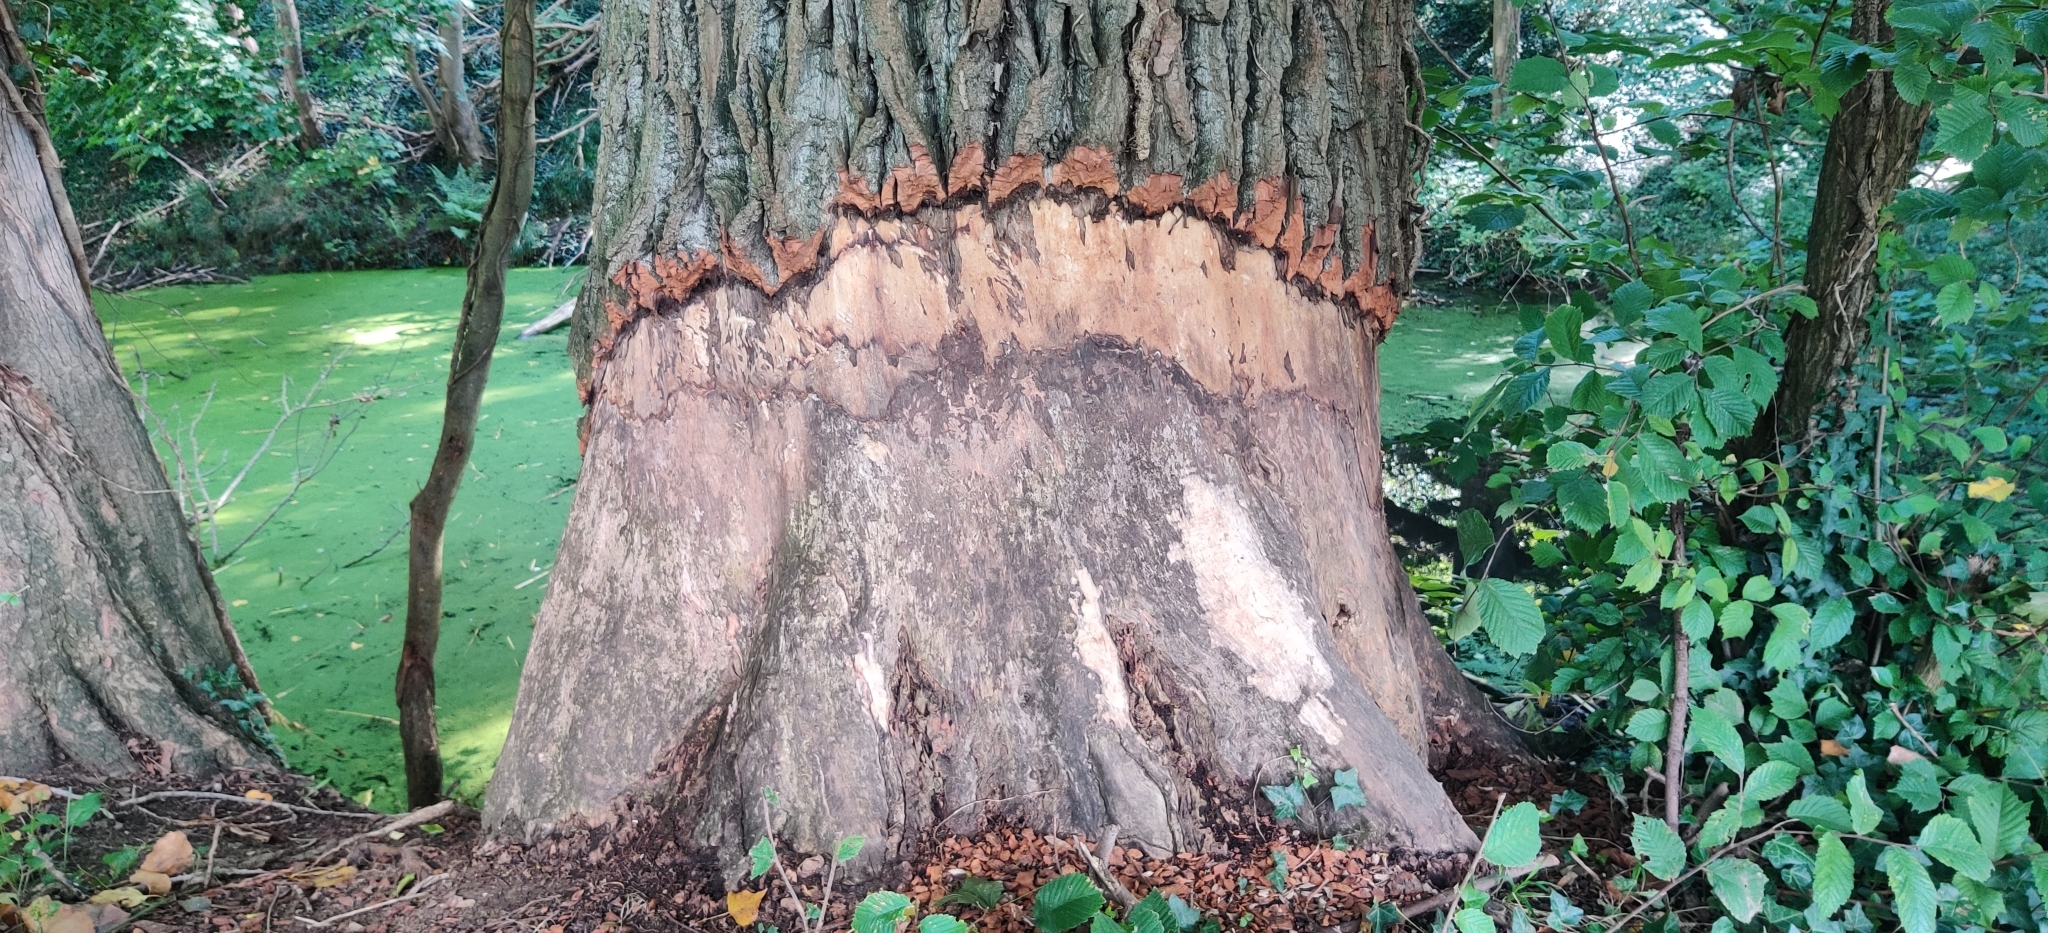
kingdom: Animalia
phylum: Chordata
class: Mammalia
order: Rodentia
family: Castoridae
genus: Castor
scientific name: Castor fiber
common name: Eurasian beaver
